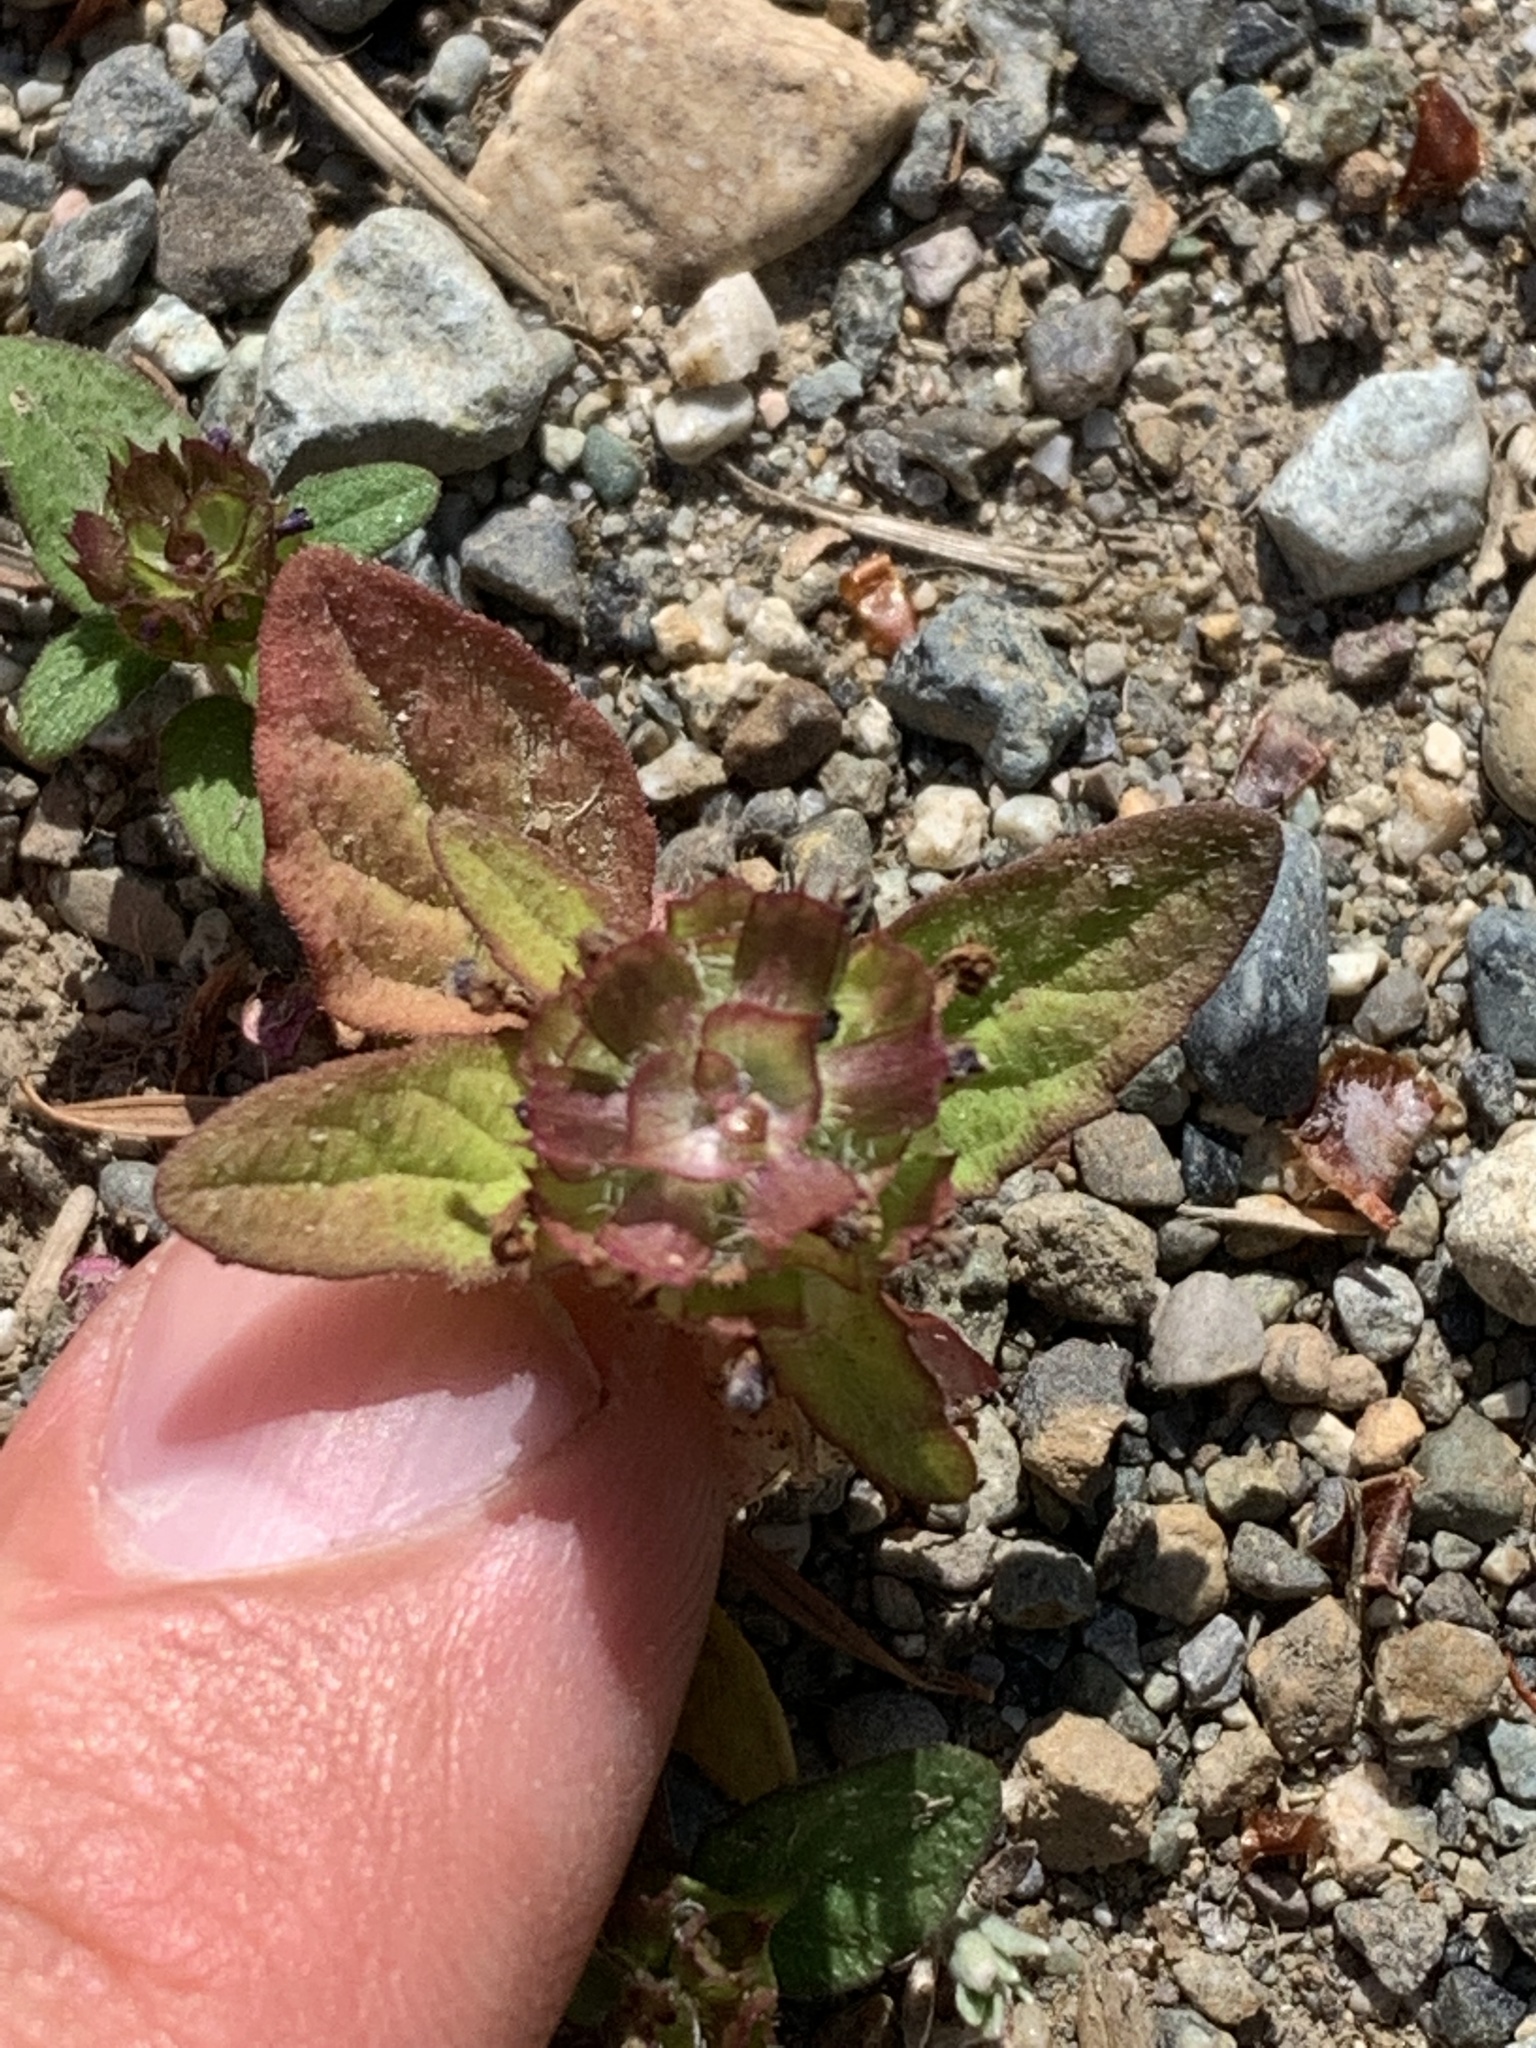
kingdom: Plantae
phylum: Tracheophyta
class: Magnoliopsida
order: Lamiales
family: Lamiaceae
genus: Prunella
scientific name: Prunella vulgaris
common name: Heal-all
